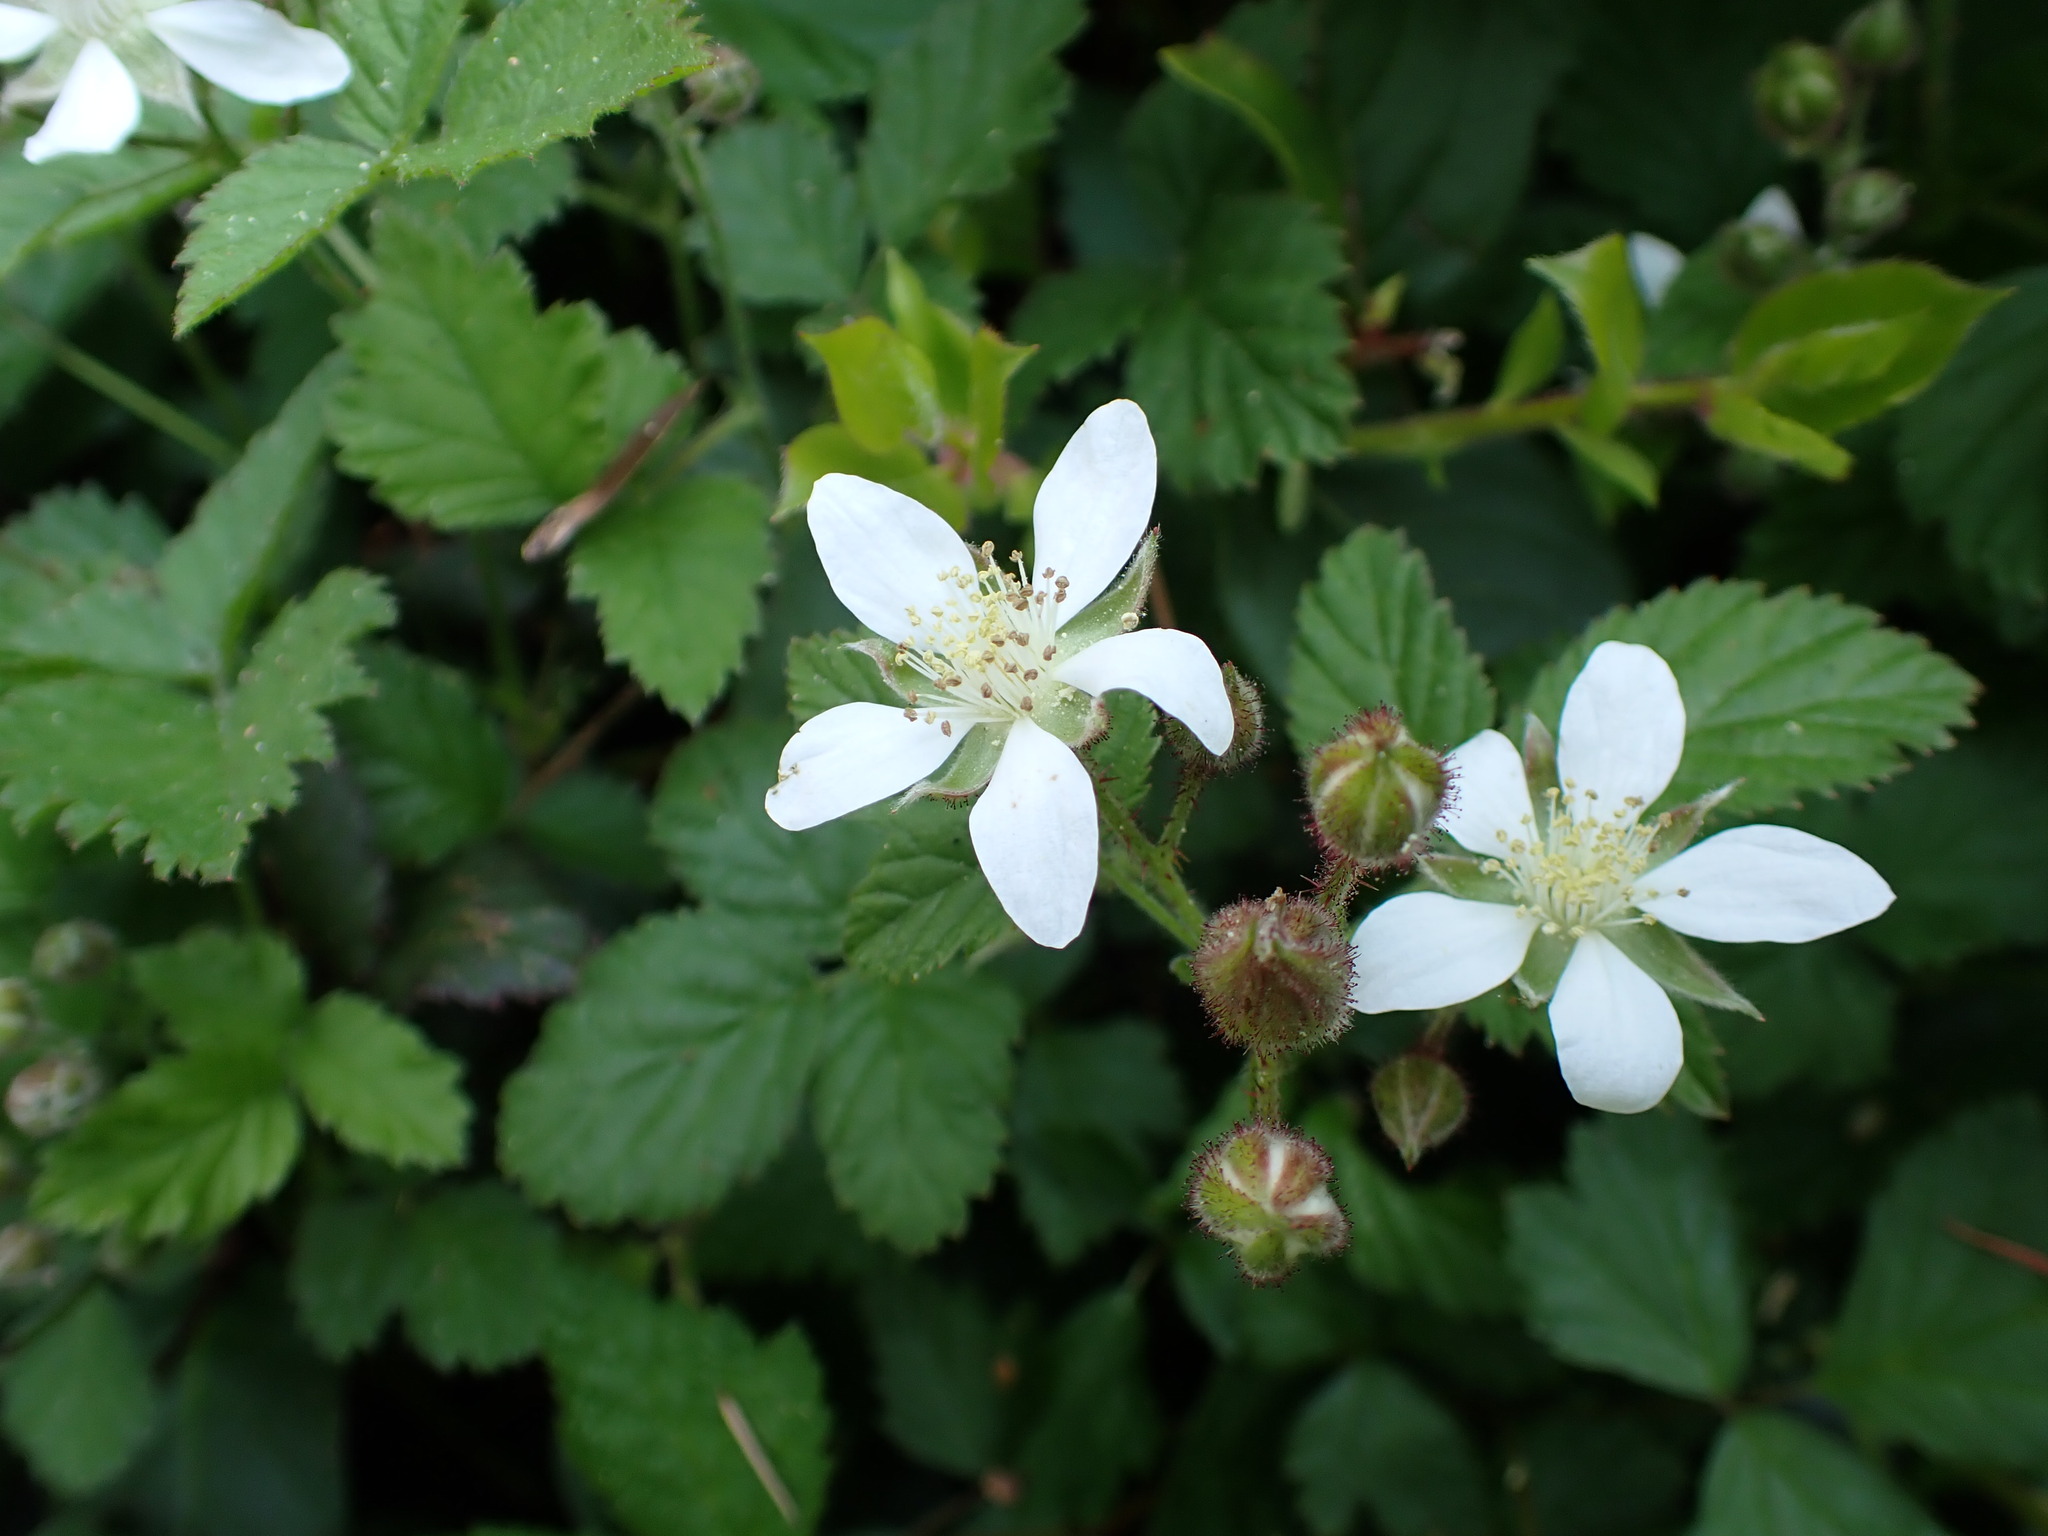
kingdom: Plantae
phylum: Tracheophyta
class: Magnoliopsida
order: Rosales
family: Rosaceae
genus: Rubus
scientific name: Rubus ursinus
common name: Pacific blackberry
